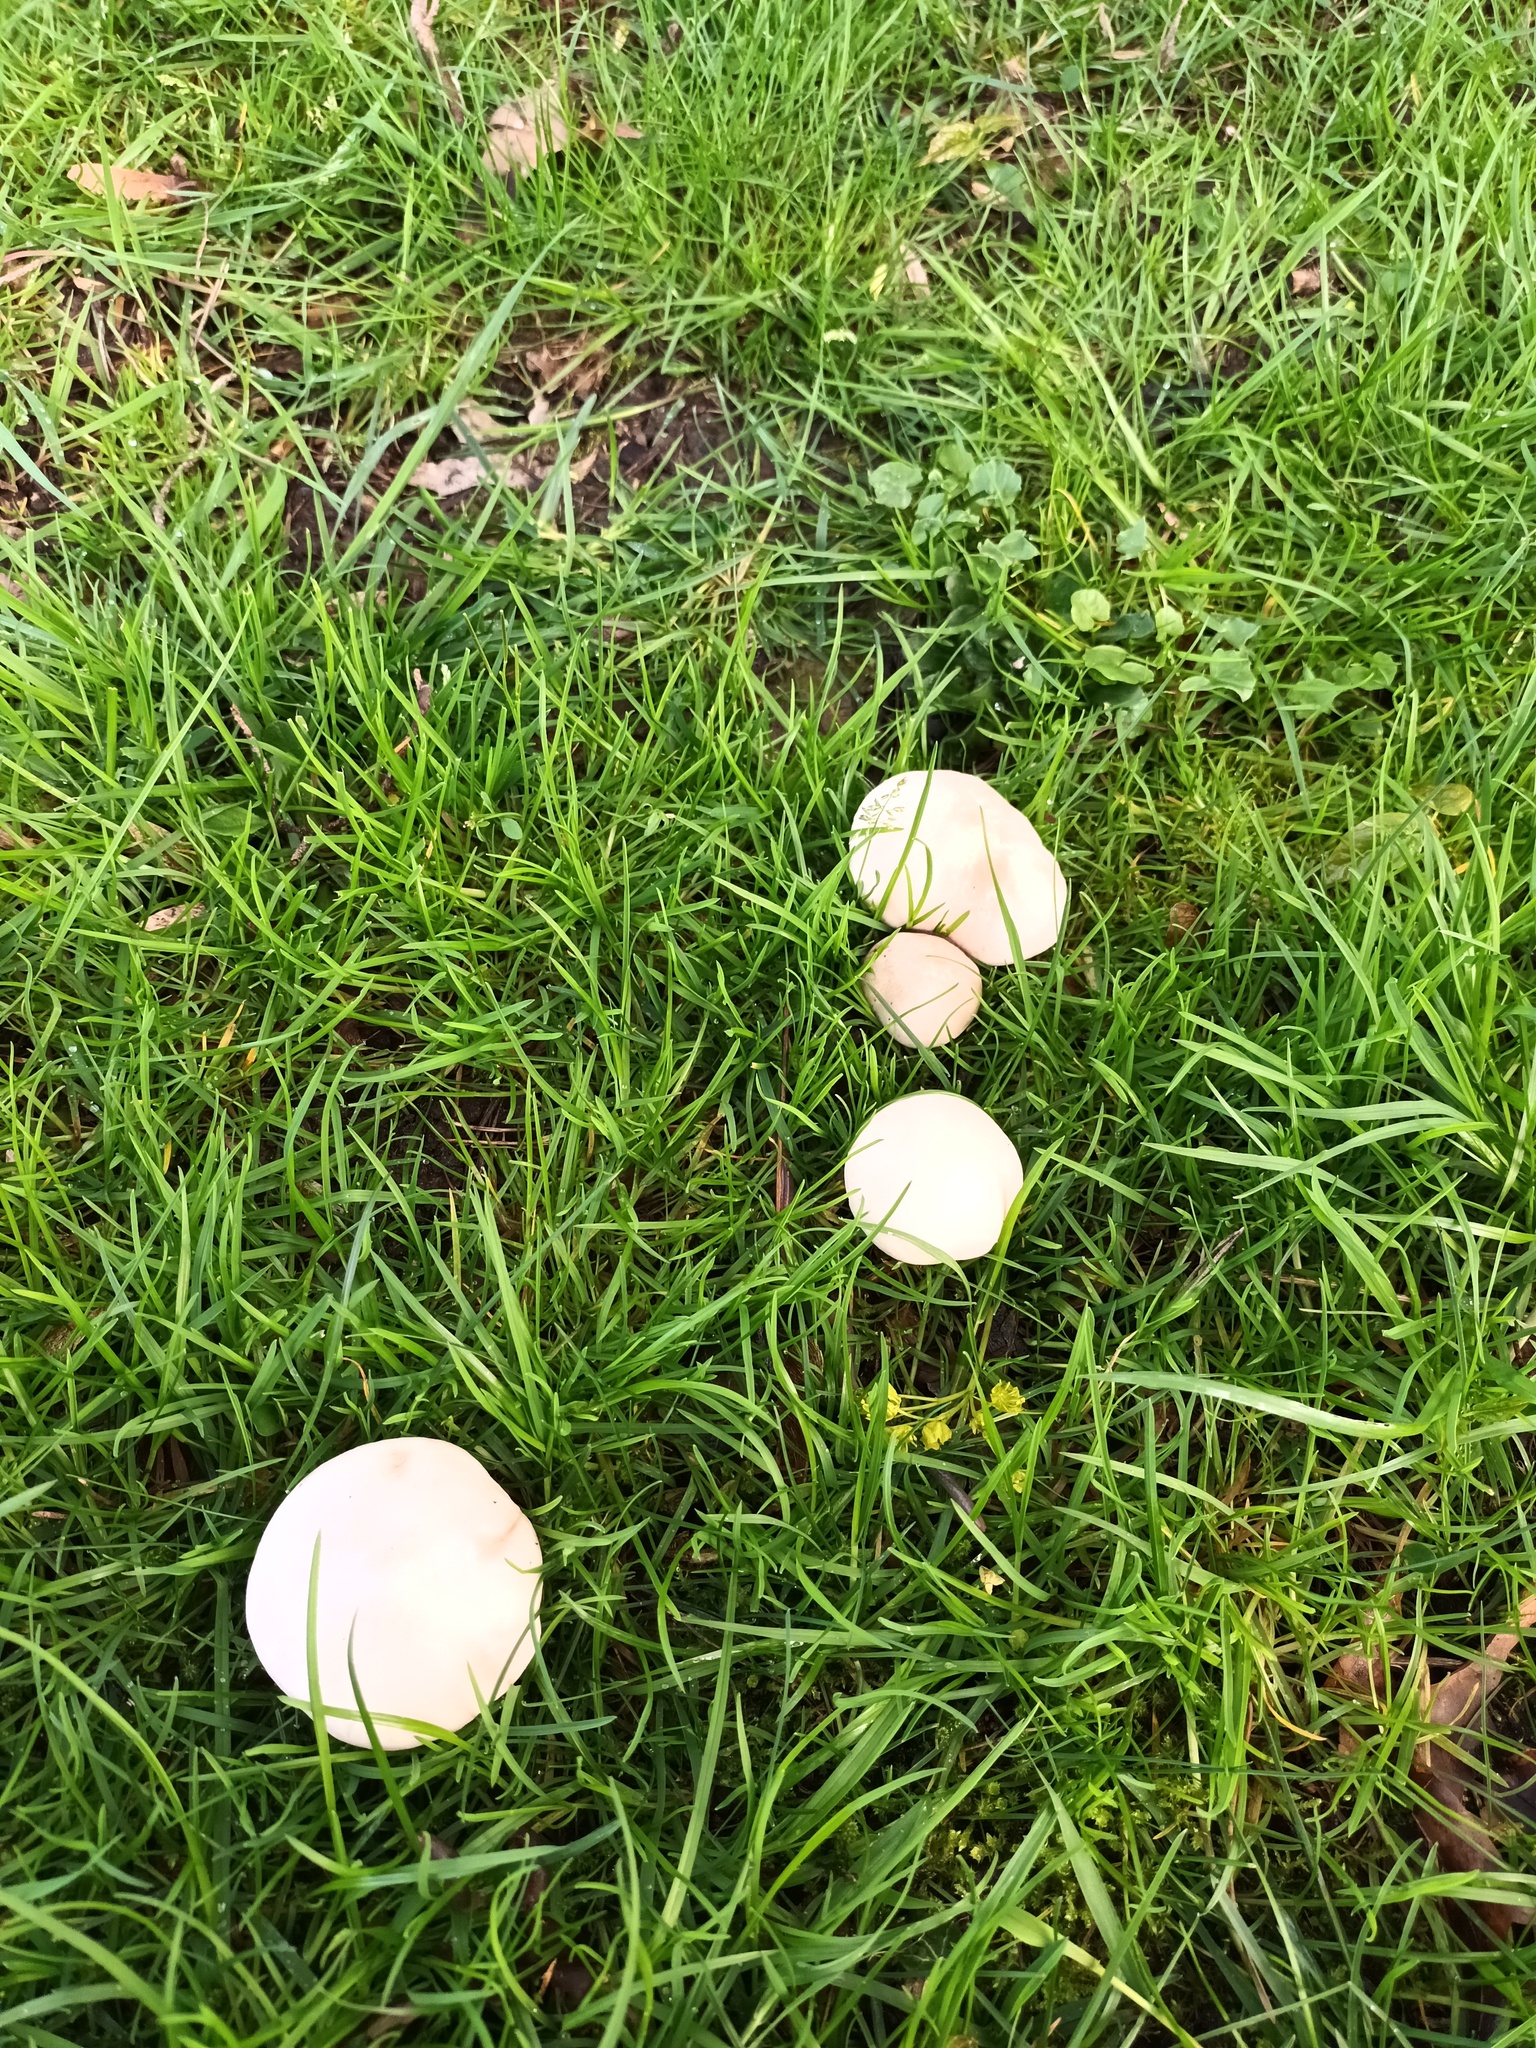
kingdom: Fungi
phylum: Basidiomycota
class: Agaricomycetes
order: Agaricales
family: Lyophyllaceae
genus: Calocybe
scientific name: Calocybe gambosa
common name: St. george's mushroom
